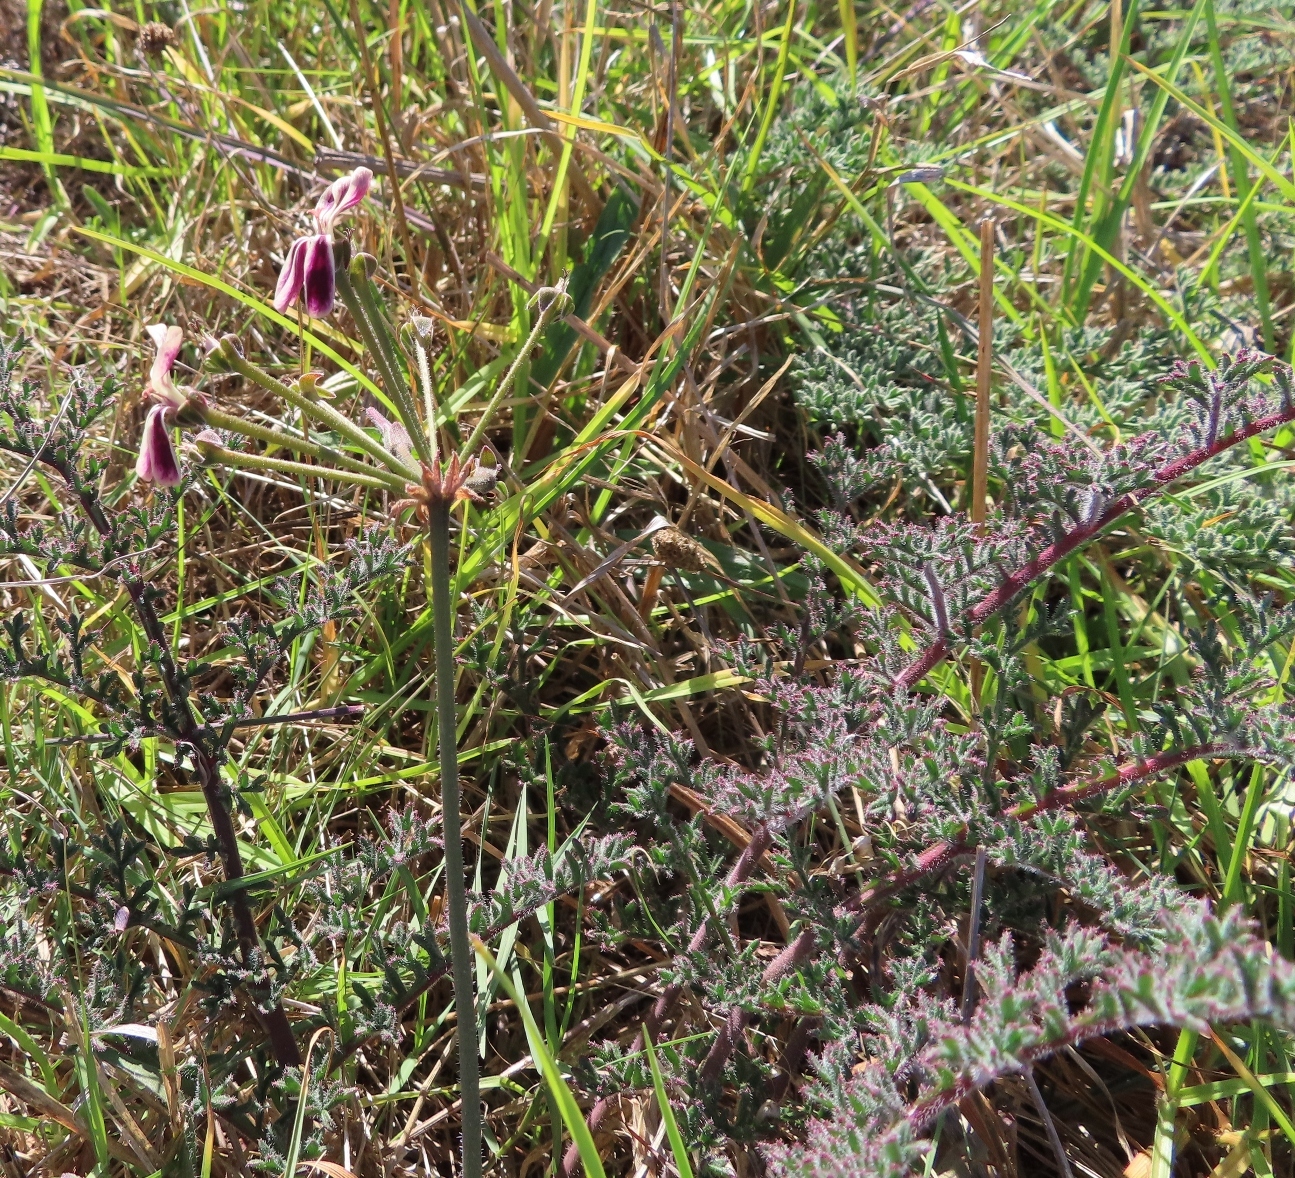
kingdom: Plantae
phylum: Tracheophyta
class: Magnoliopsida
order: Geraniales
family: Geraniaceae
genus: Pelargonium
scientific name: Pelargonium triste
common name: Night-scent pelargonium
